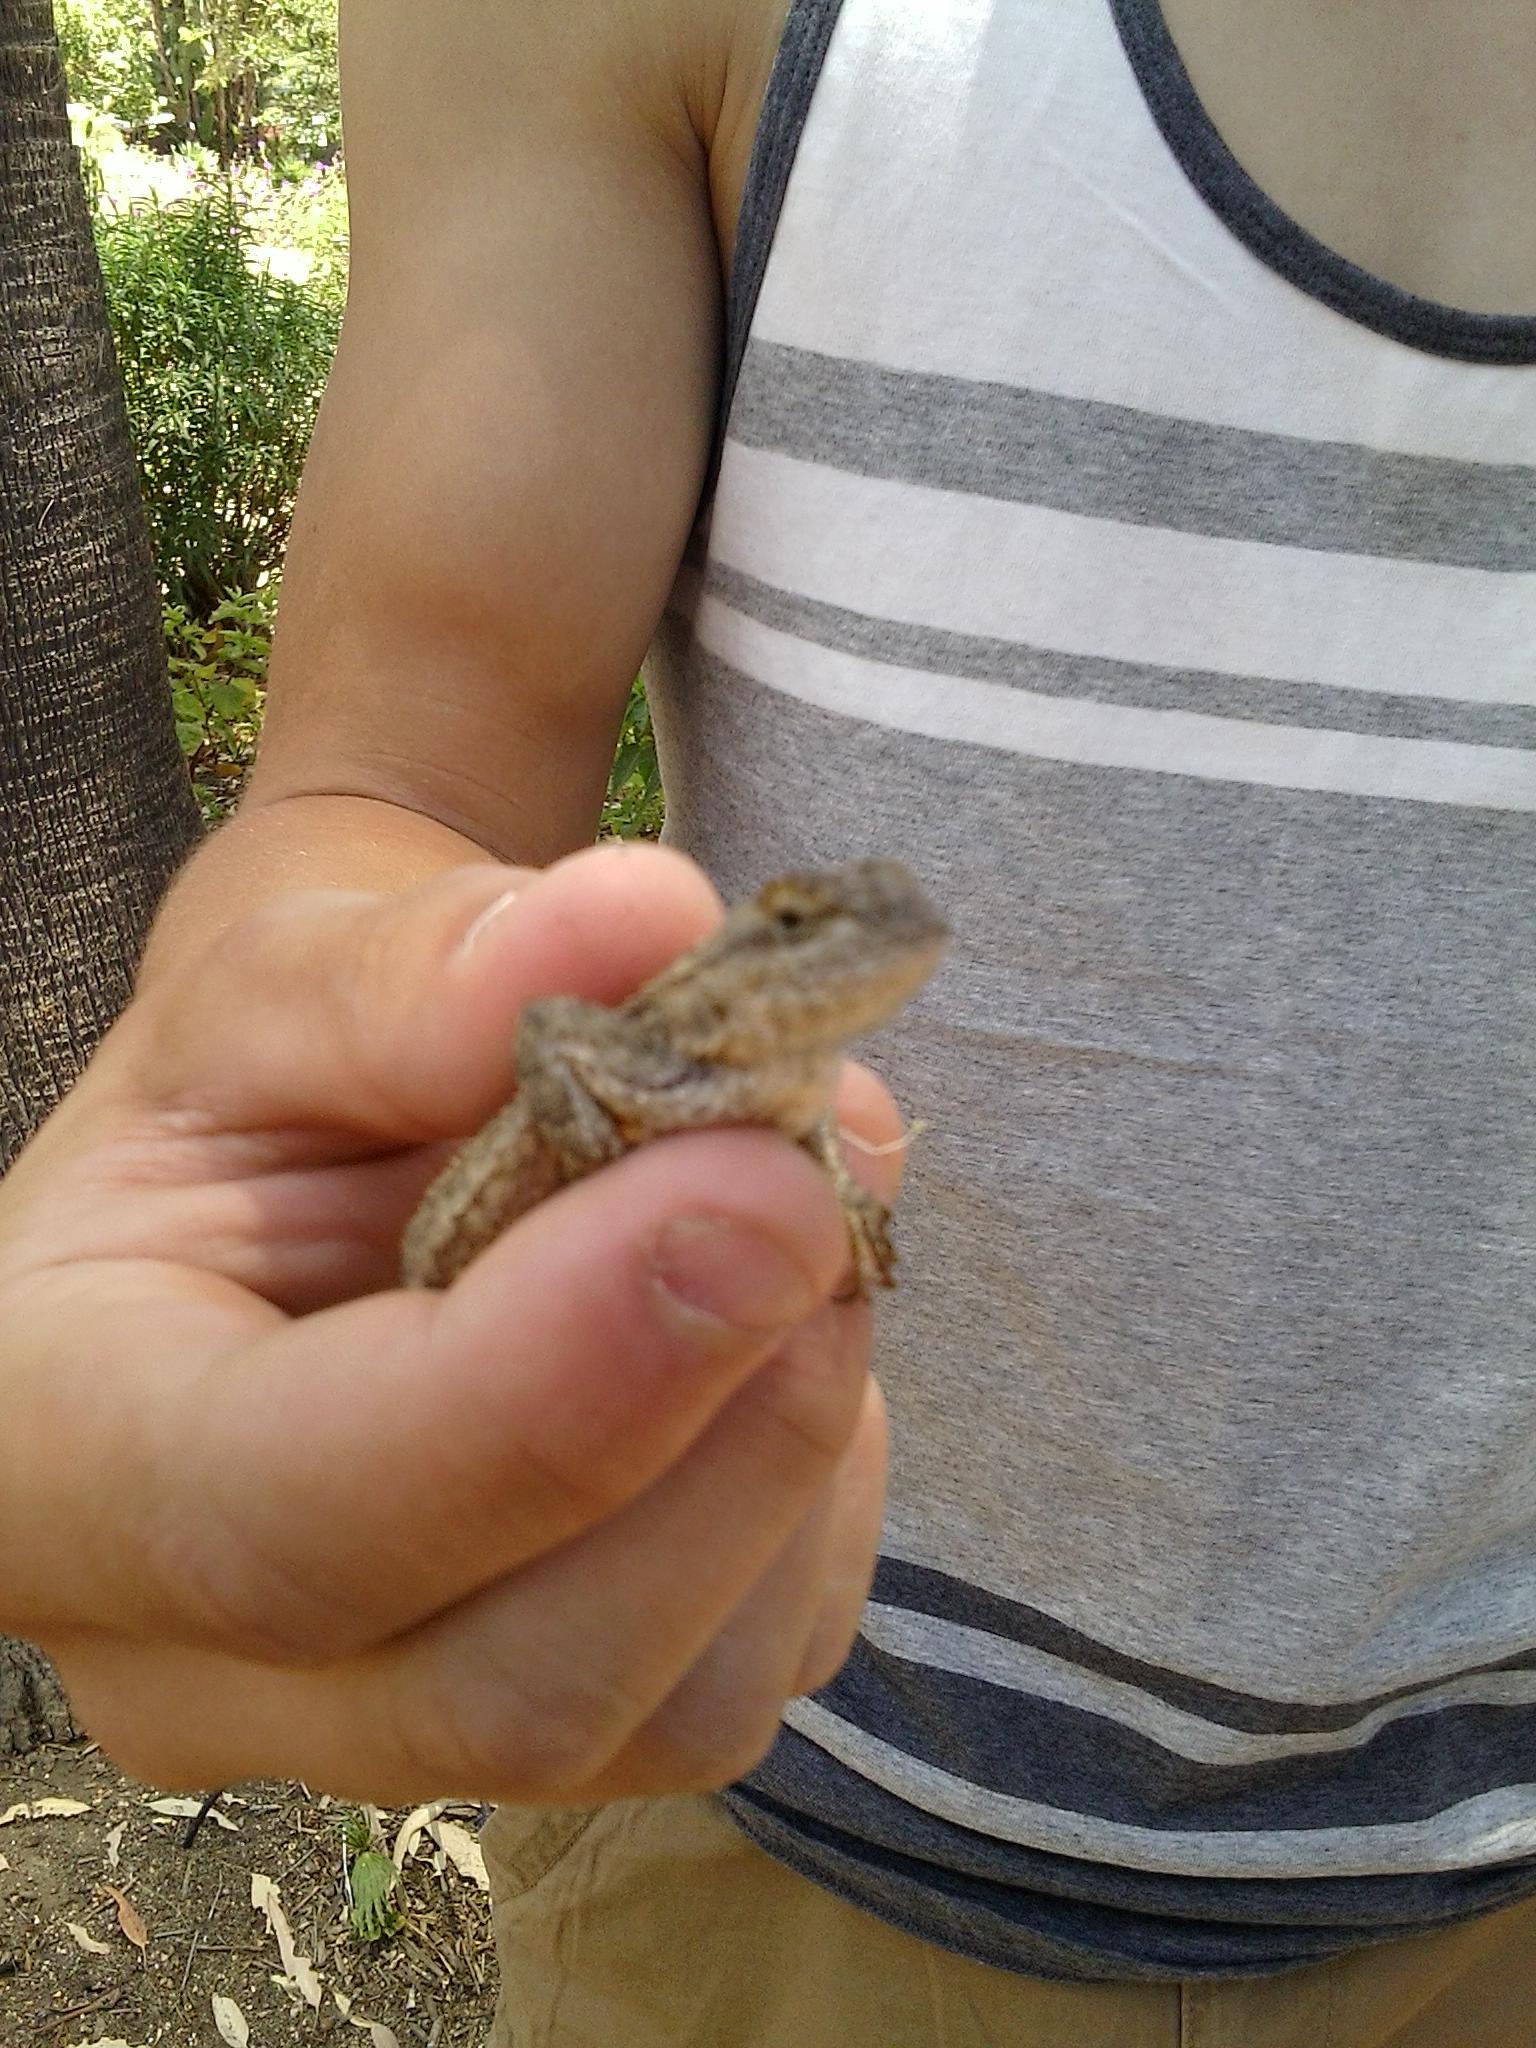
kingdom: Animalia
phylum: Chordata
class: Squamata
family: Phrynosomatidae
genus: Sceloporus
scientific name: Sceloporus occidentalis
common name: Western fence lizard
